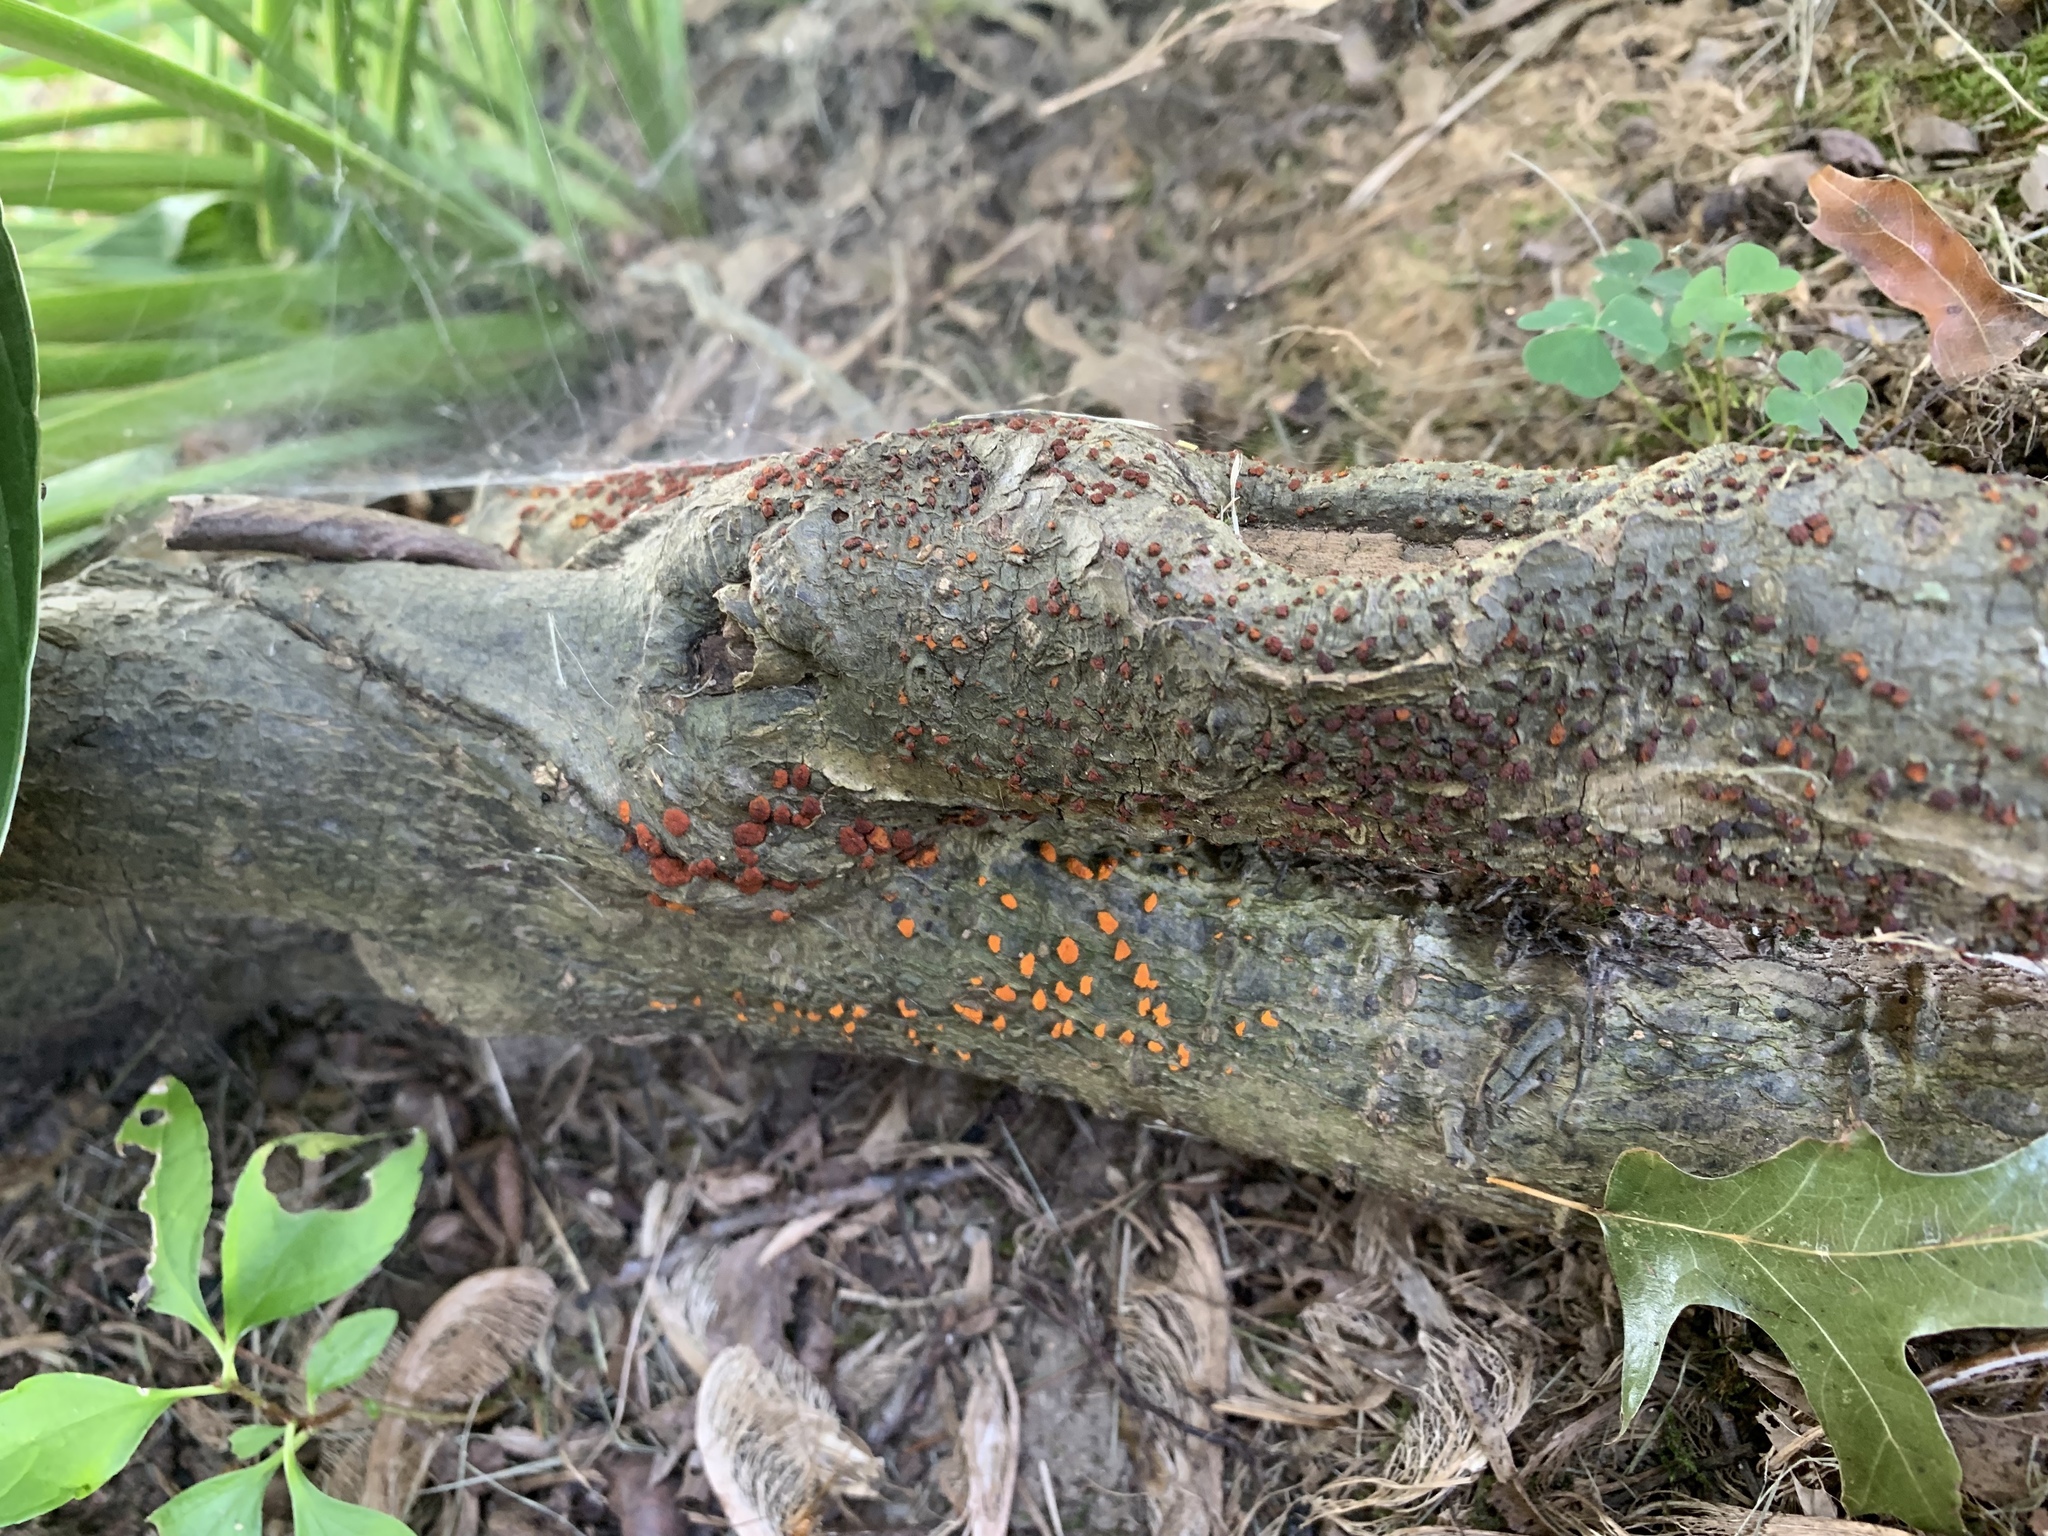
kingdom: Fungi
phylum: Ascomycota
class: Sordariomycetes
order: Diaporthales
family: Cryphonectriaceae
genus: Amphilogia
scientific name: Amphilogia gyrosa
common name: Orange hobnail canker
